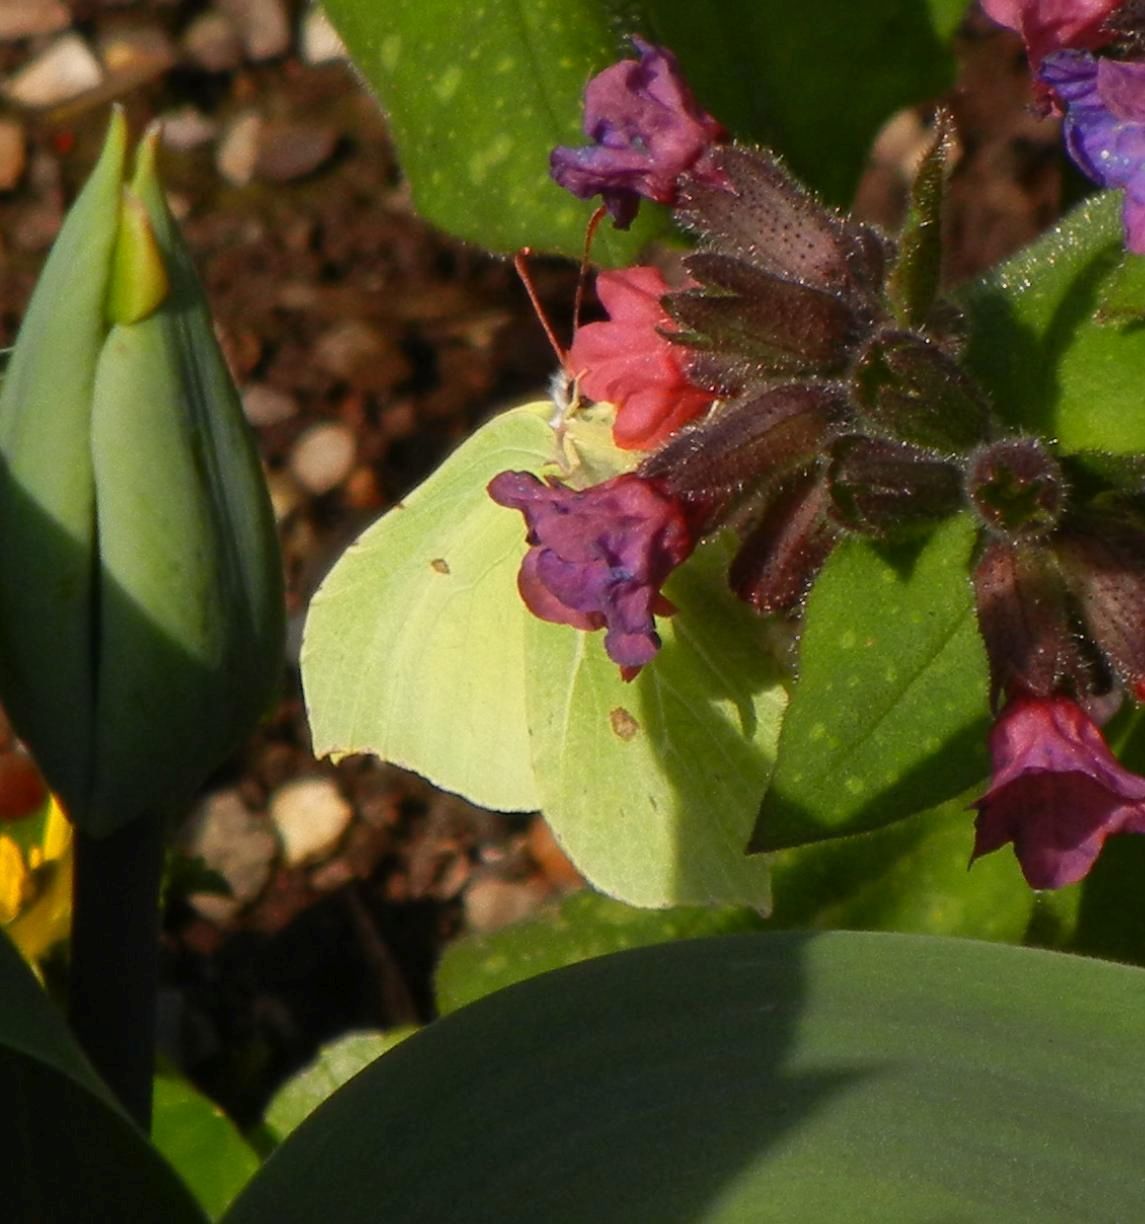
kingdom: Animalia
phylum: Arthropoda
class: Insecta
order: Lepidoptera
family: Pieridae
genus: Gonepteryx
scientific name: Gonepteryx rhamni
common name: Brimstone
